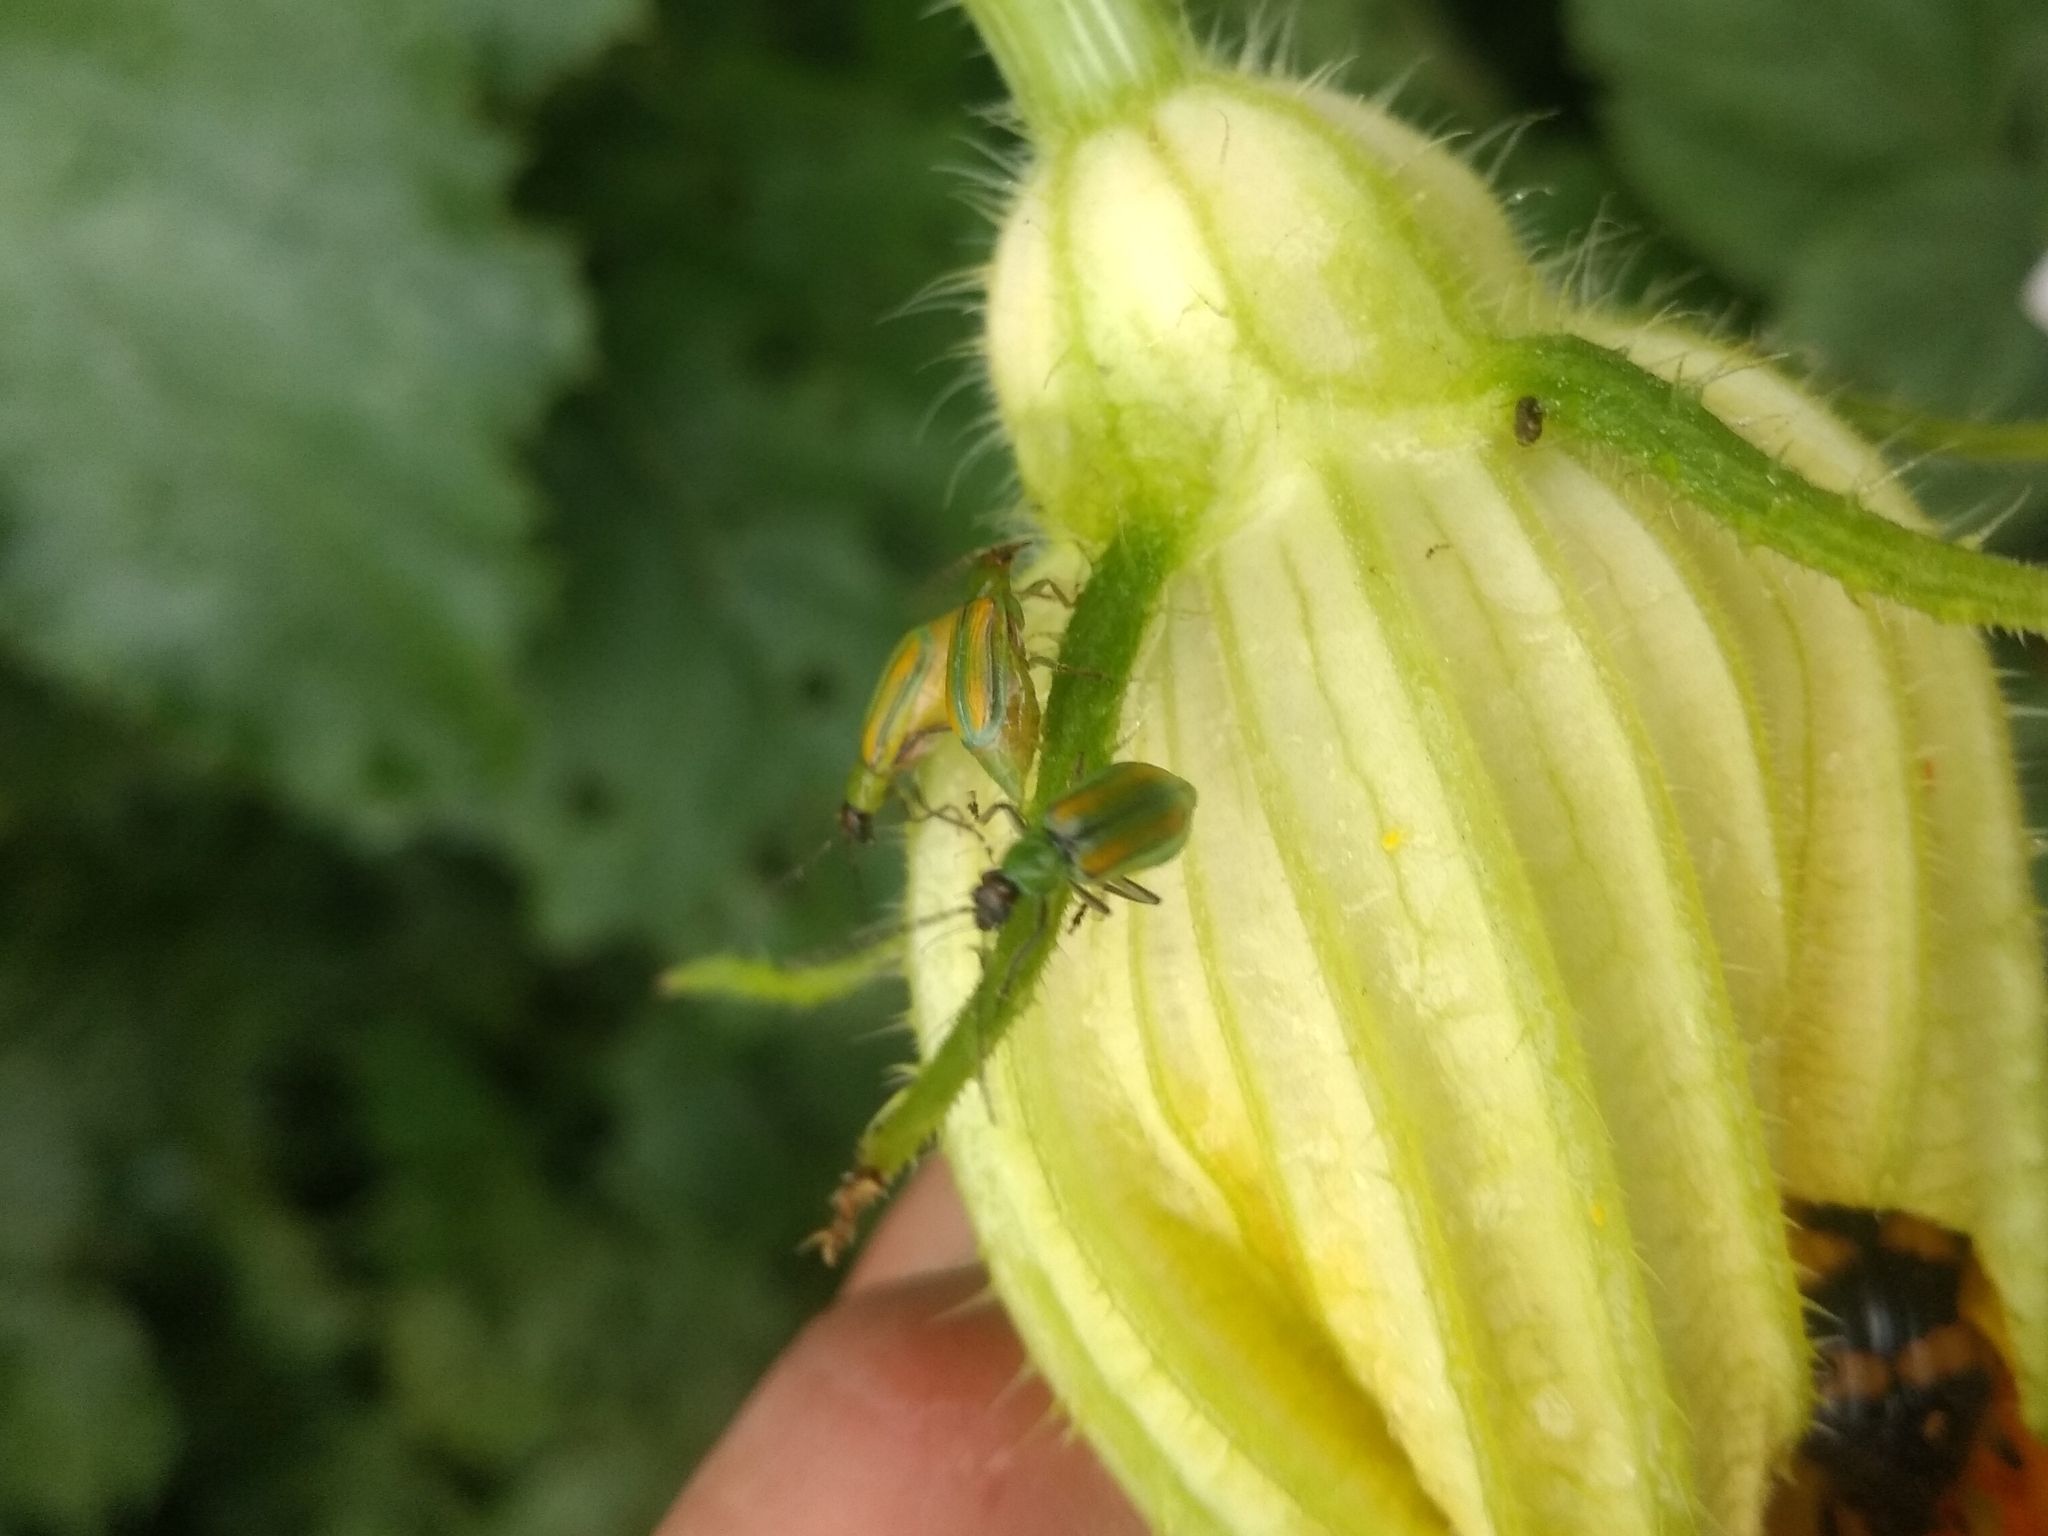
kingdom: Animalia
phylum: Arthropoda
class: Insecta
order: Coleoptera
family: Chrysomelidae
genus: Diabrotica
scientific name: Diabrotica virgifera
